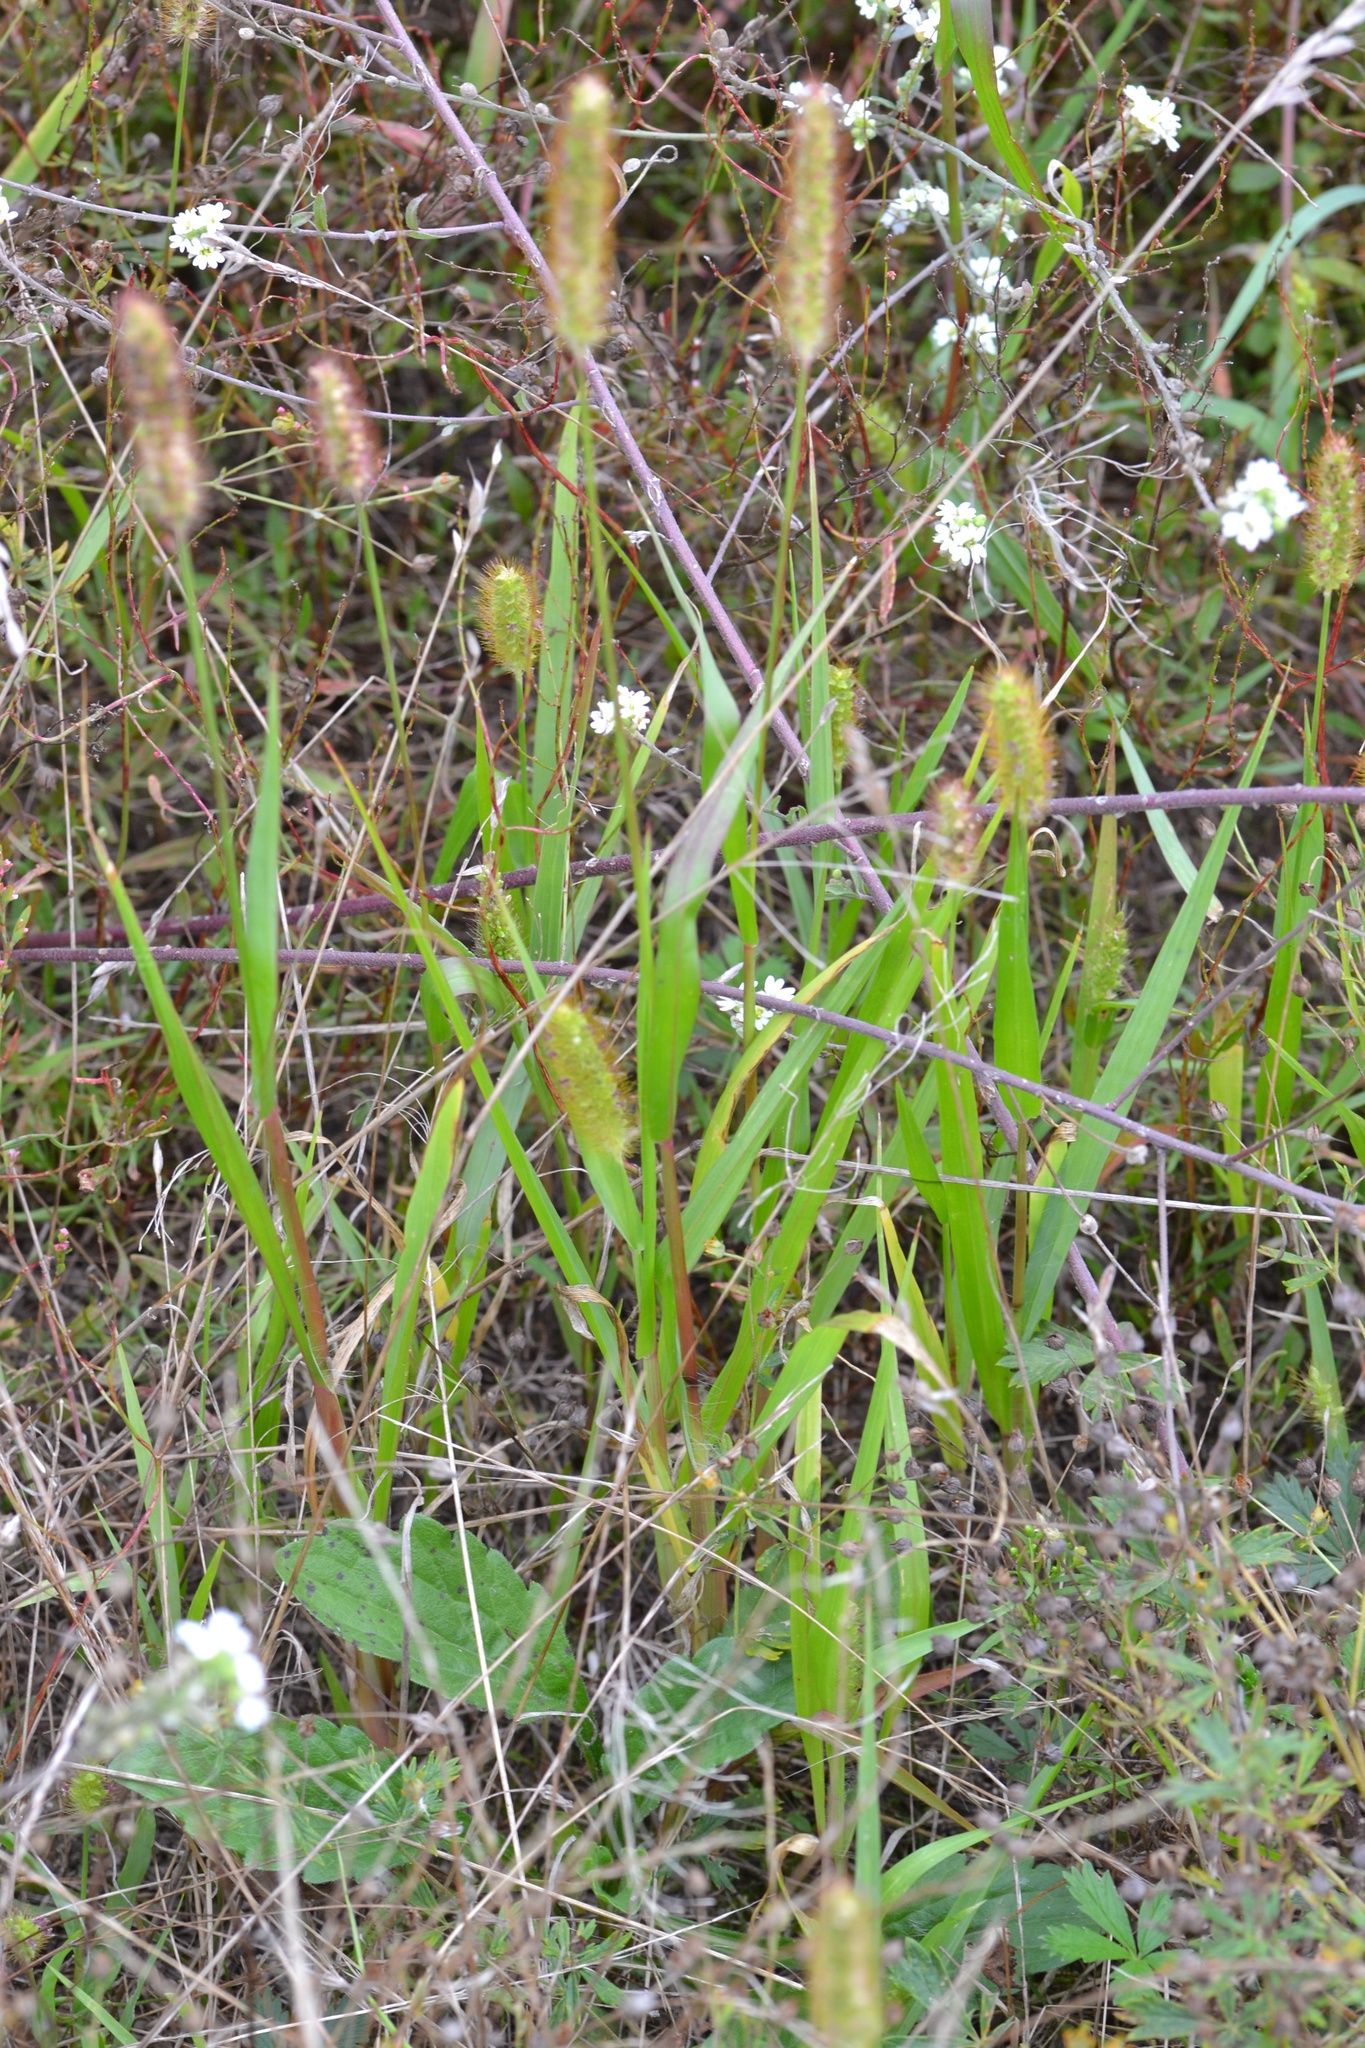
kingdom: Plantae
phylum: Tracheophyta
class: Liliopsida
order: Poales
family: Poaceae
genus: Setaria
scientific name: Setaria pumila
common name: Yellow bristle-grass
